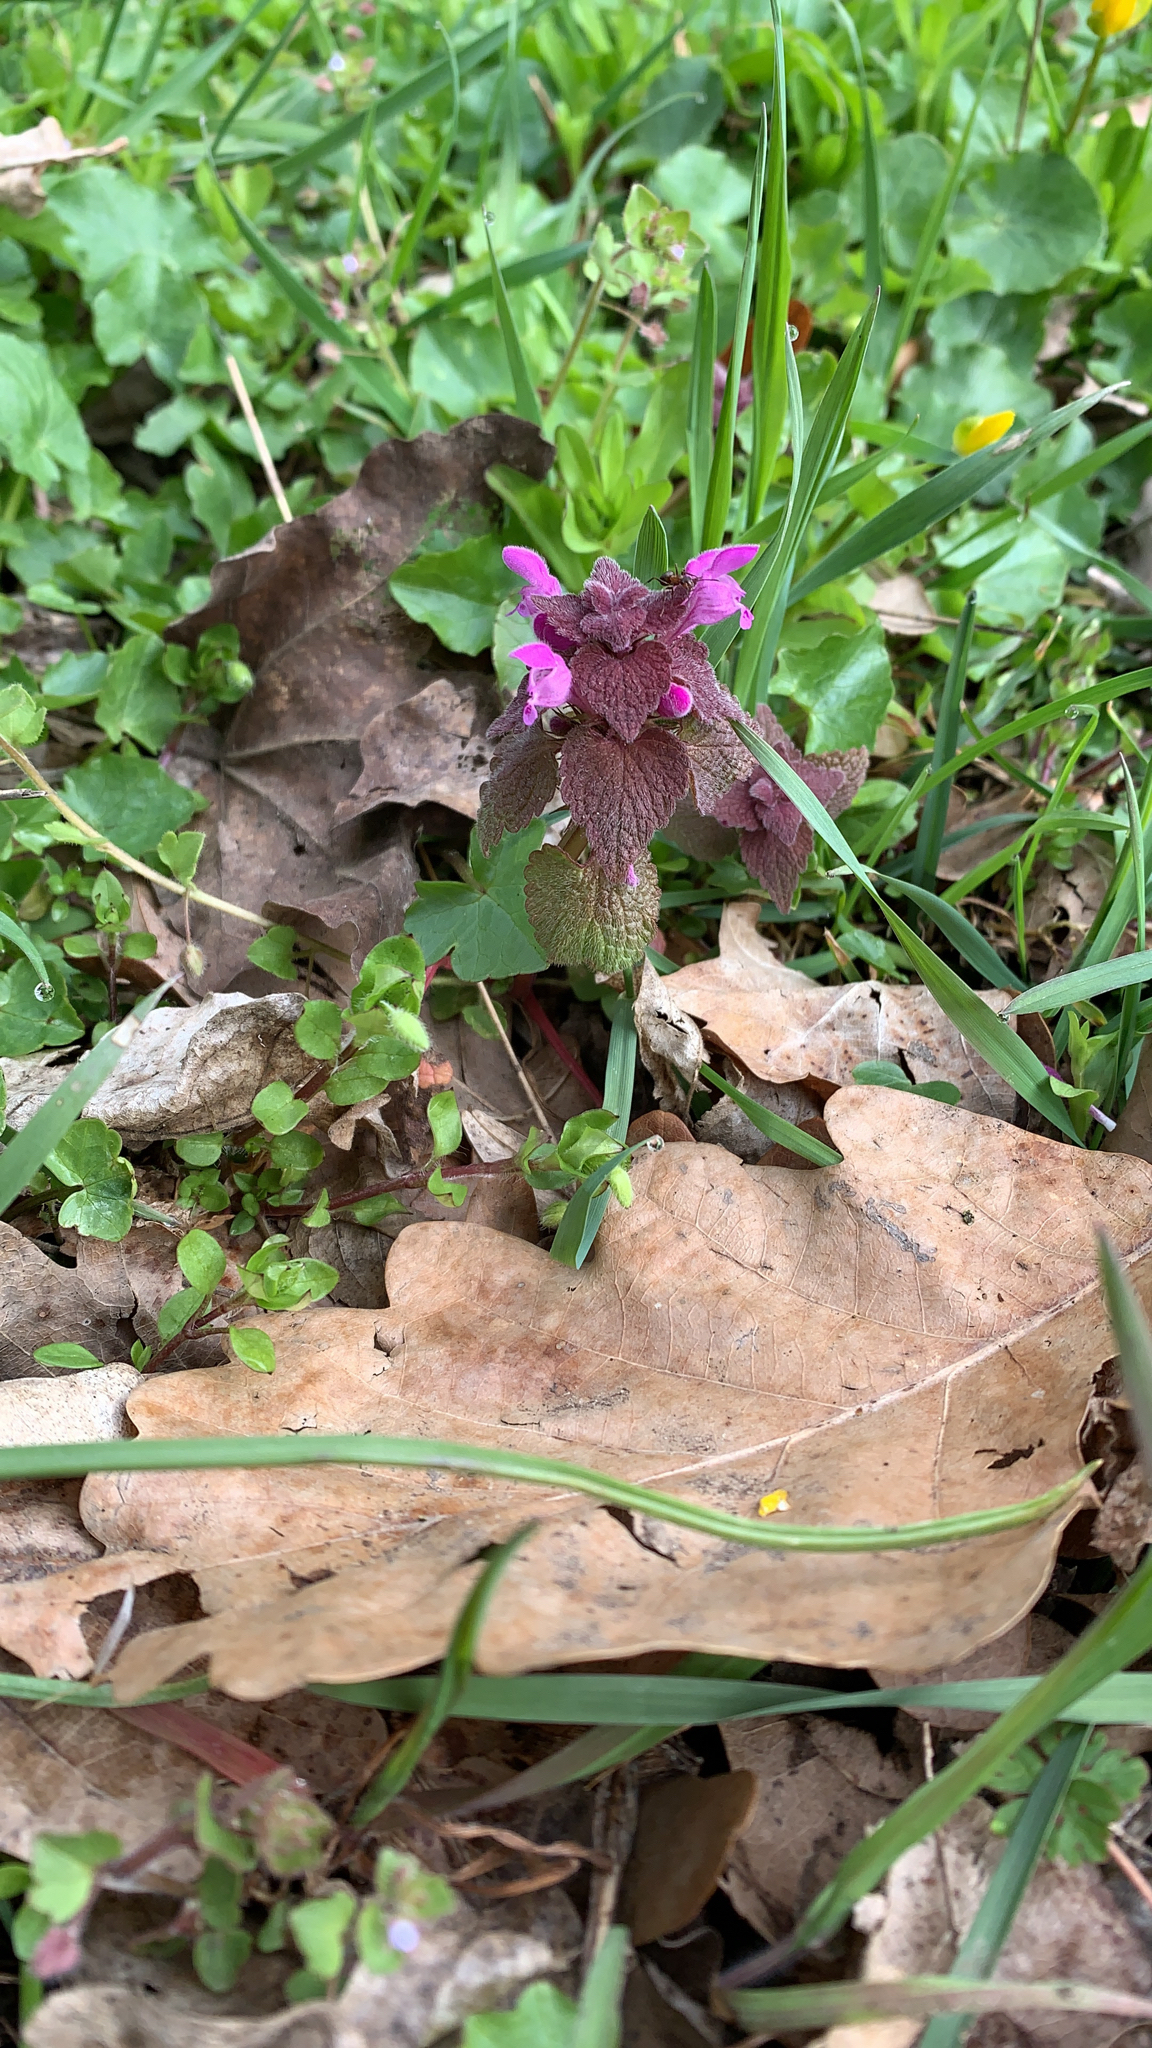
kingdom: Plantae
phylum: Tracheophyta
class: Magnoliopsida
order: Lamiales
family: Lamiaceae
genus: Lamium
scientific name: Lamium purpureum
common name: Red dead-nettle
